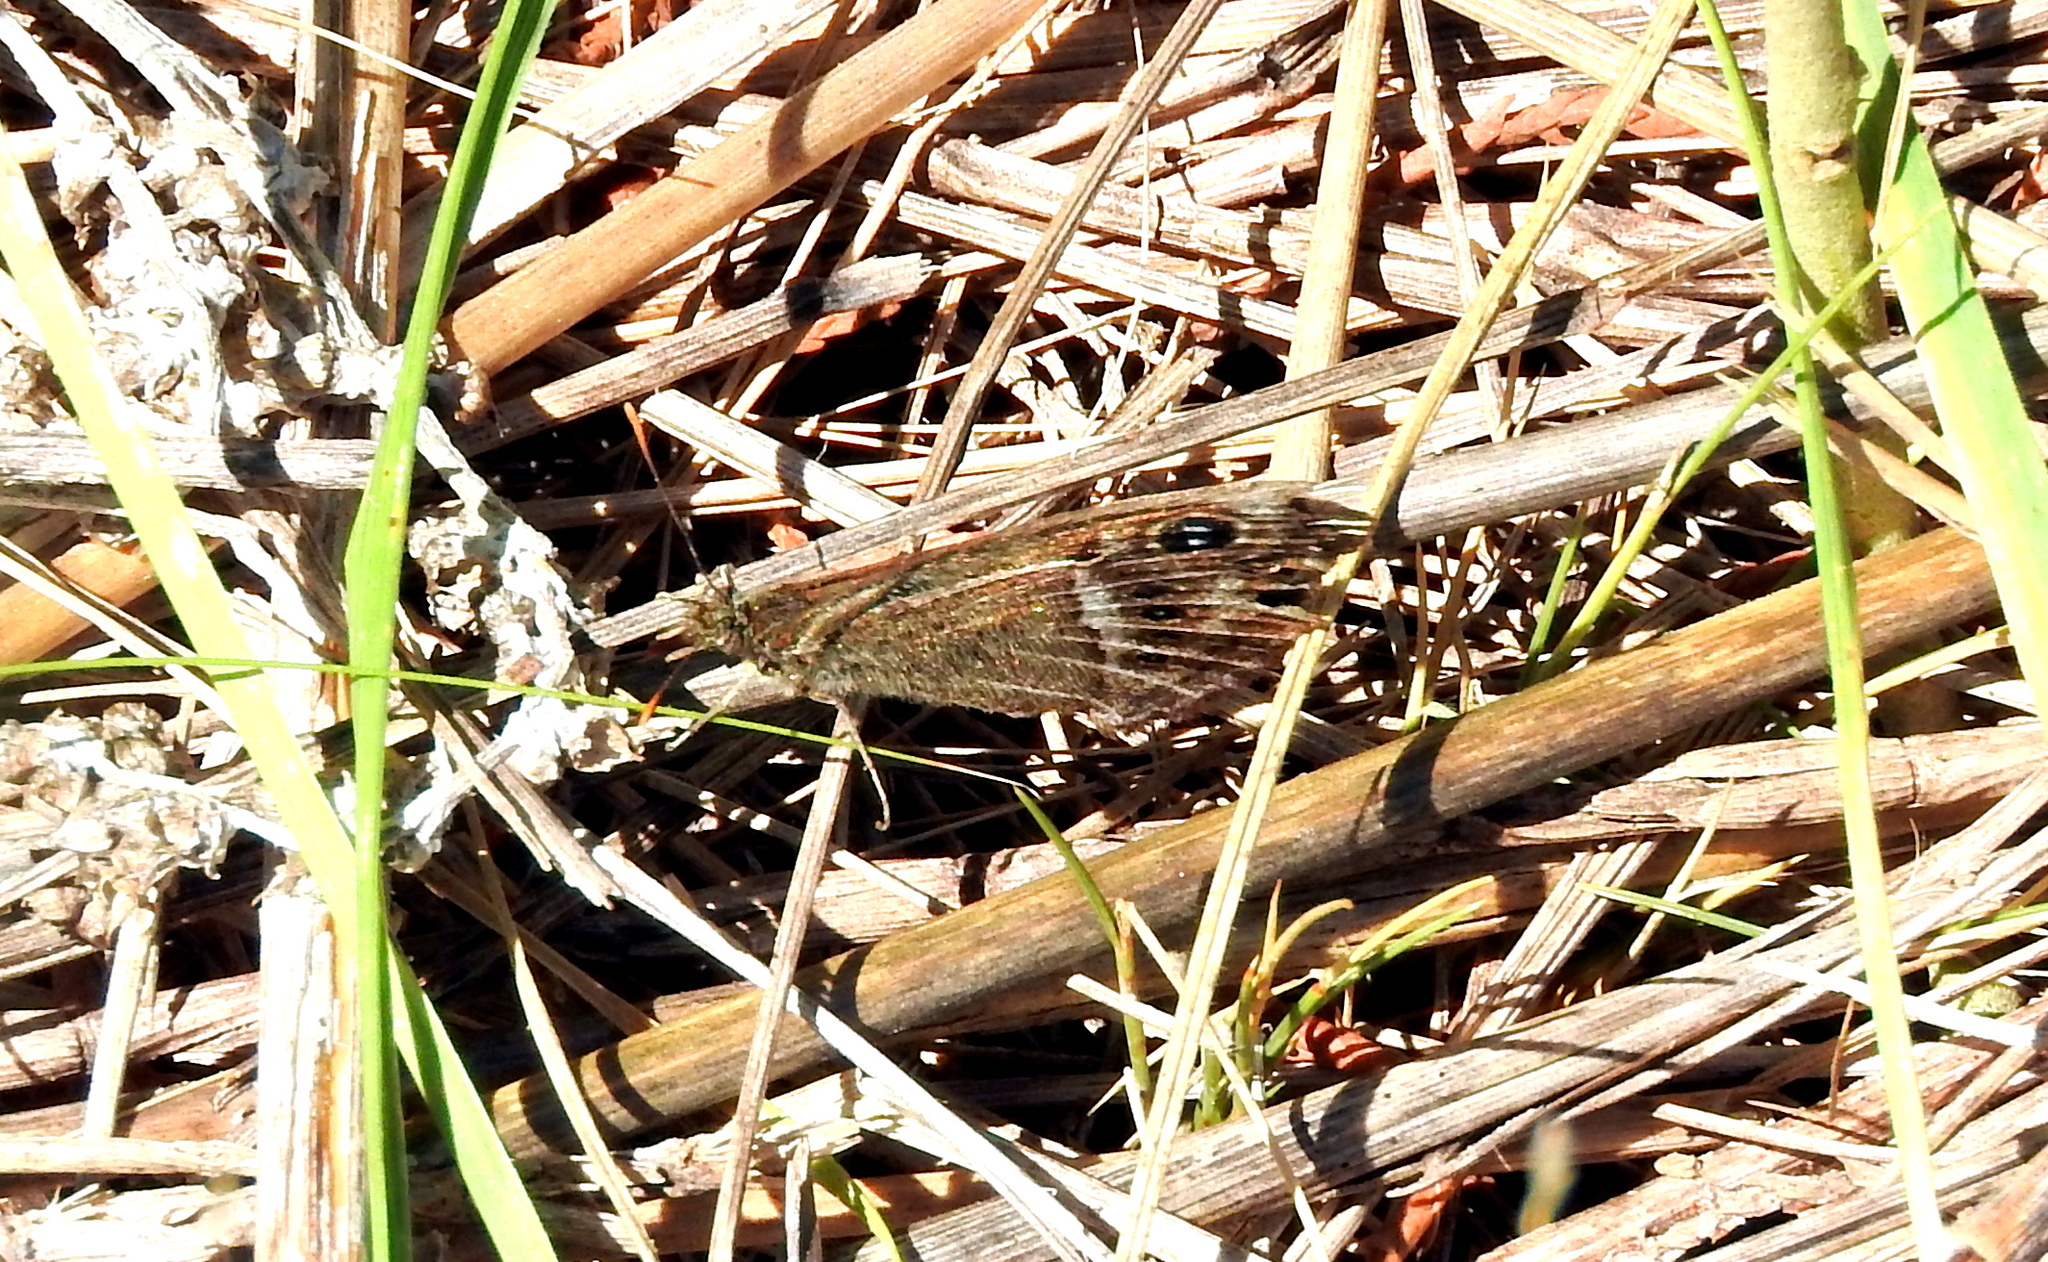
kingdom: Animalia
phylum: Arthropoda
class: Insecta
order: Lepidoptera
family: Nymphalidae
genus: Pampasatyrus
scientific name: Pampasatyrus gyrtone
